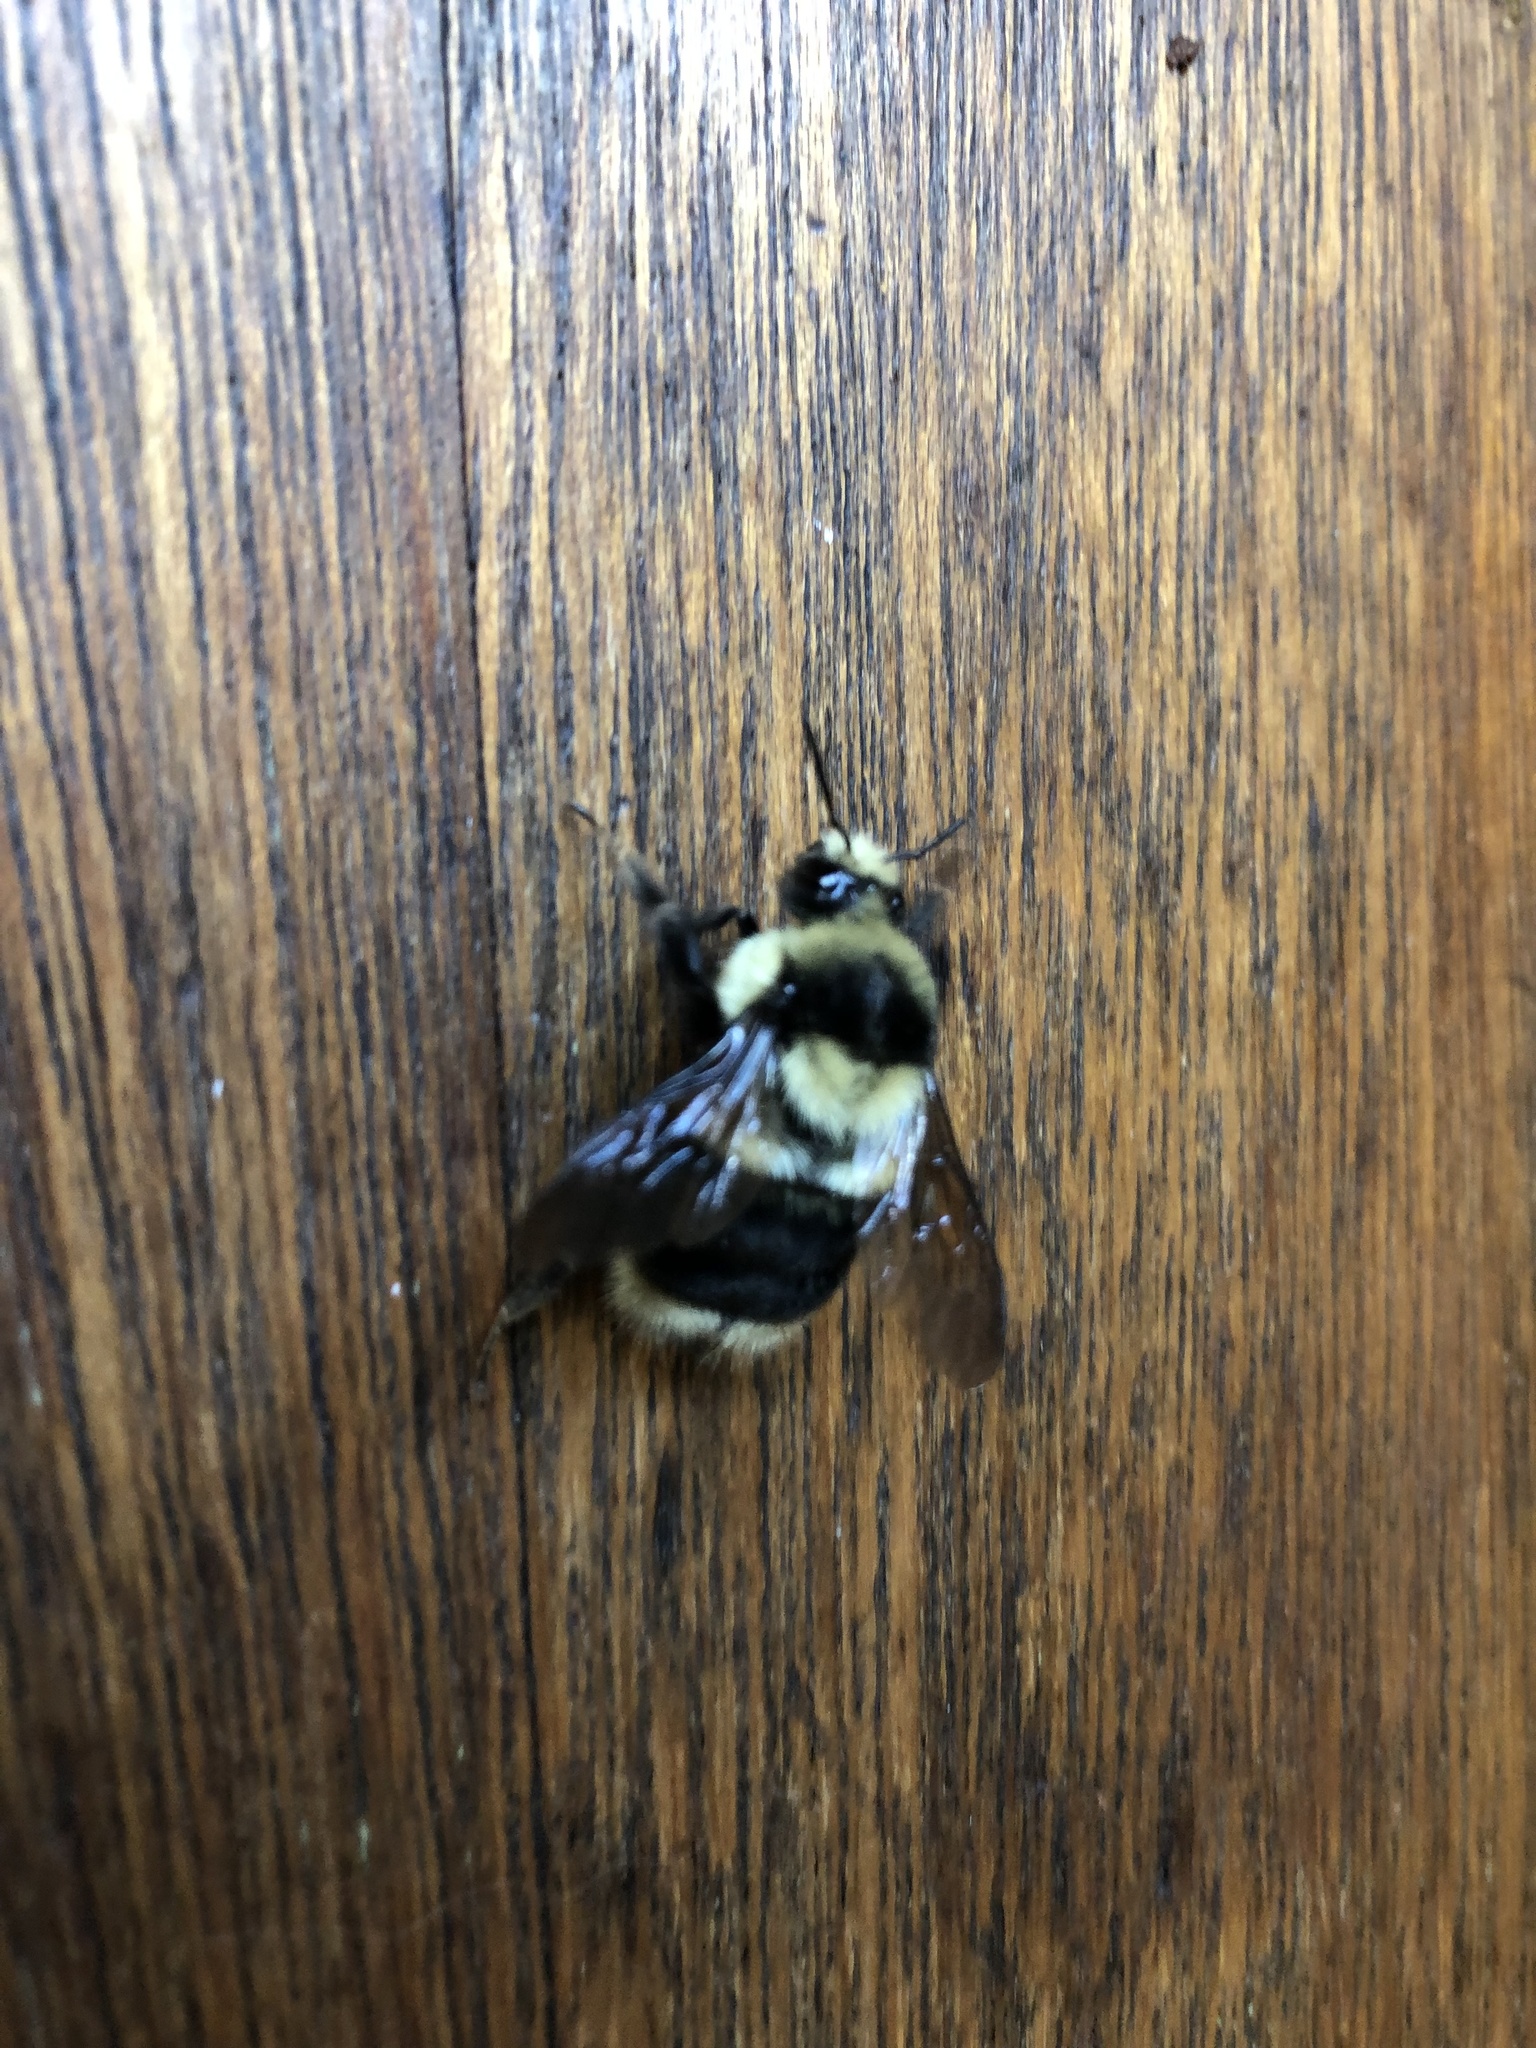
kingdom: Animalia
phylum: Arthropoda
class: Insecta
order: Hymenoptera
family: Apidae
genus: Bombus
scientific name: Bombus melanopygus
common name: Black tail bumble bee
